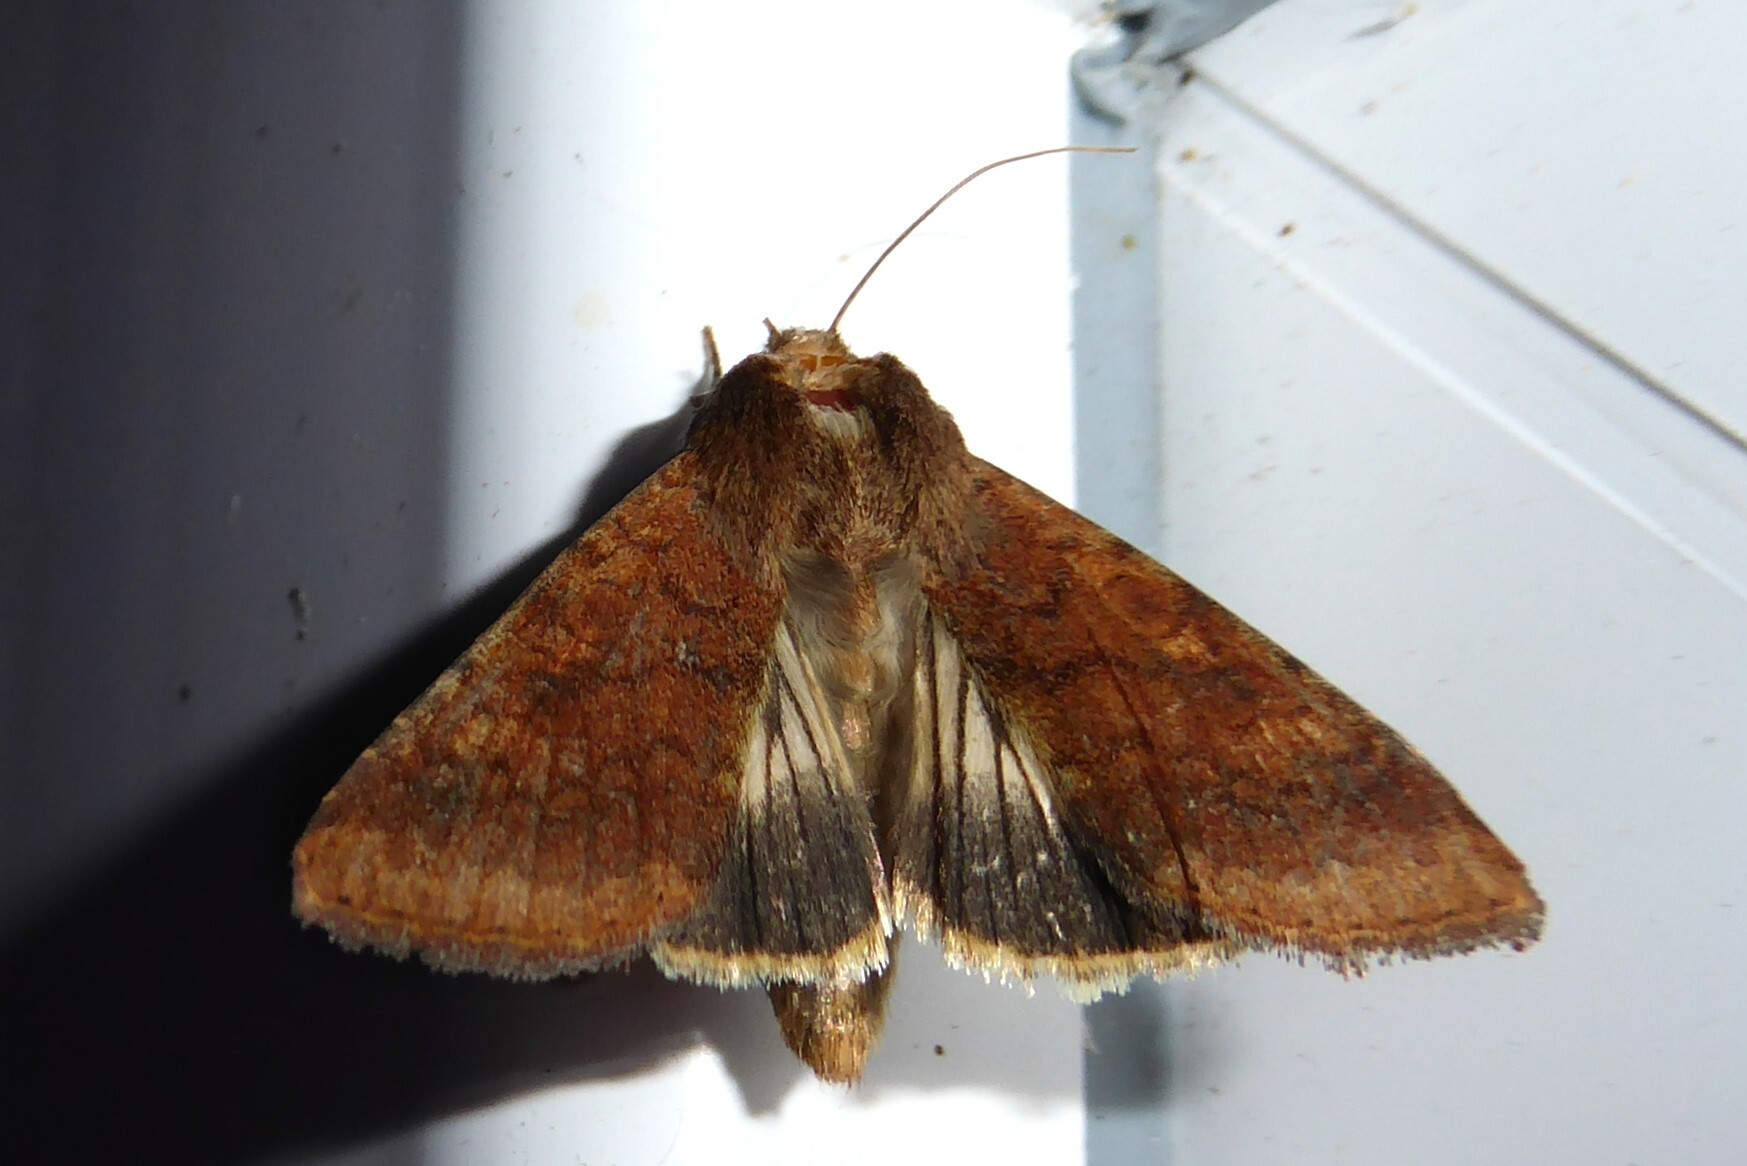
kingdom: Animalia
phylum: Arthropoda
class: Insecta
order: Lepidoptera
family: Noctuidae
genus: Helicoverpa
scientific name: Helicoverpa punctigera
